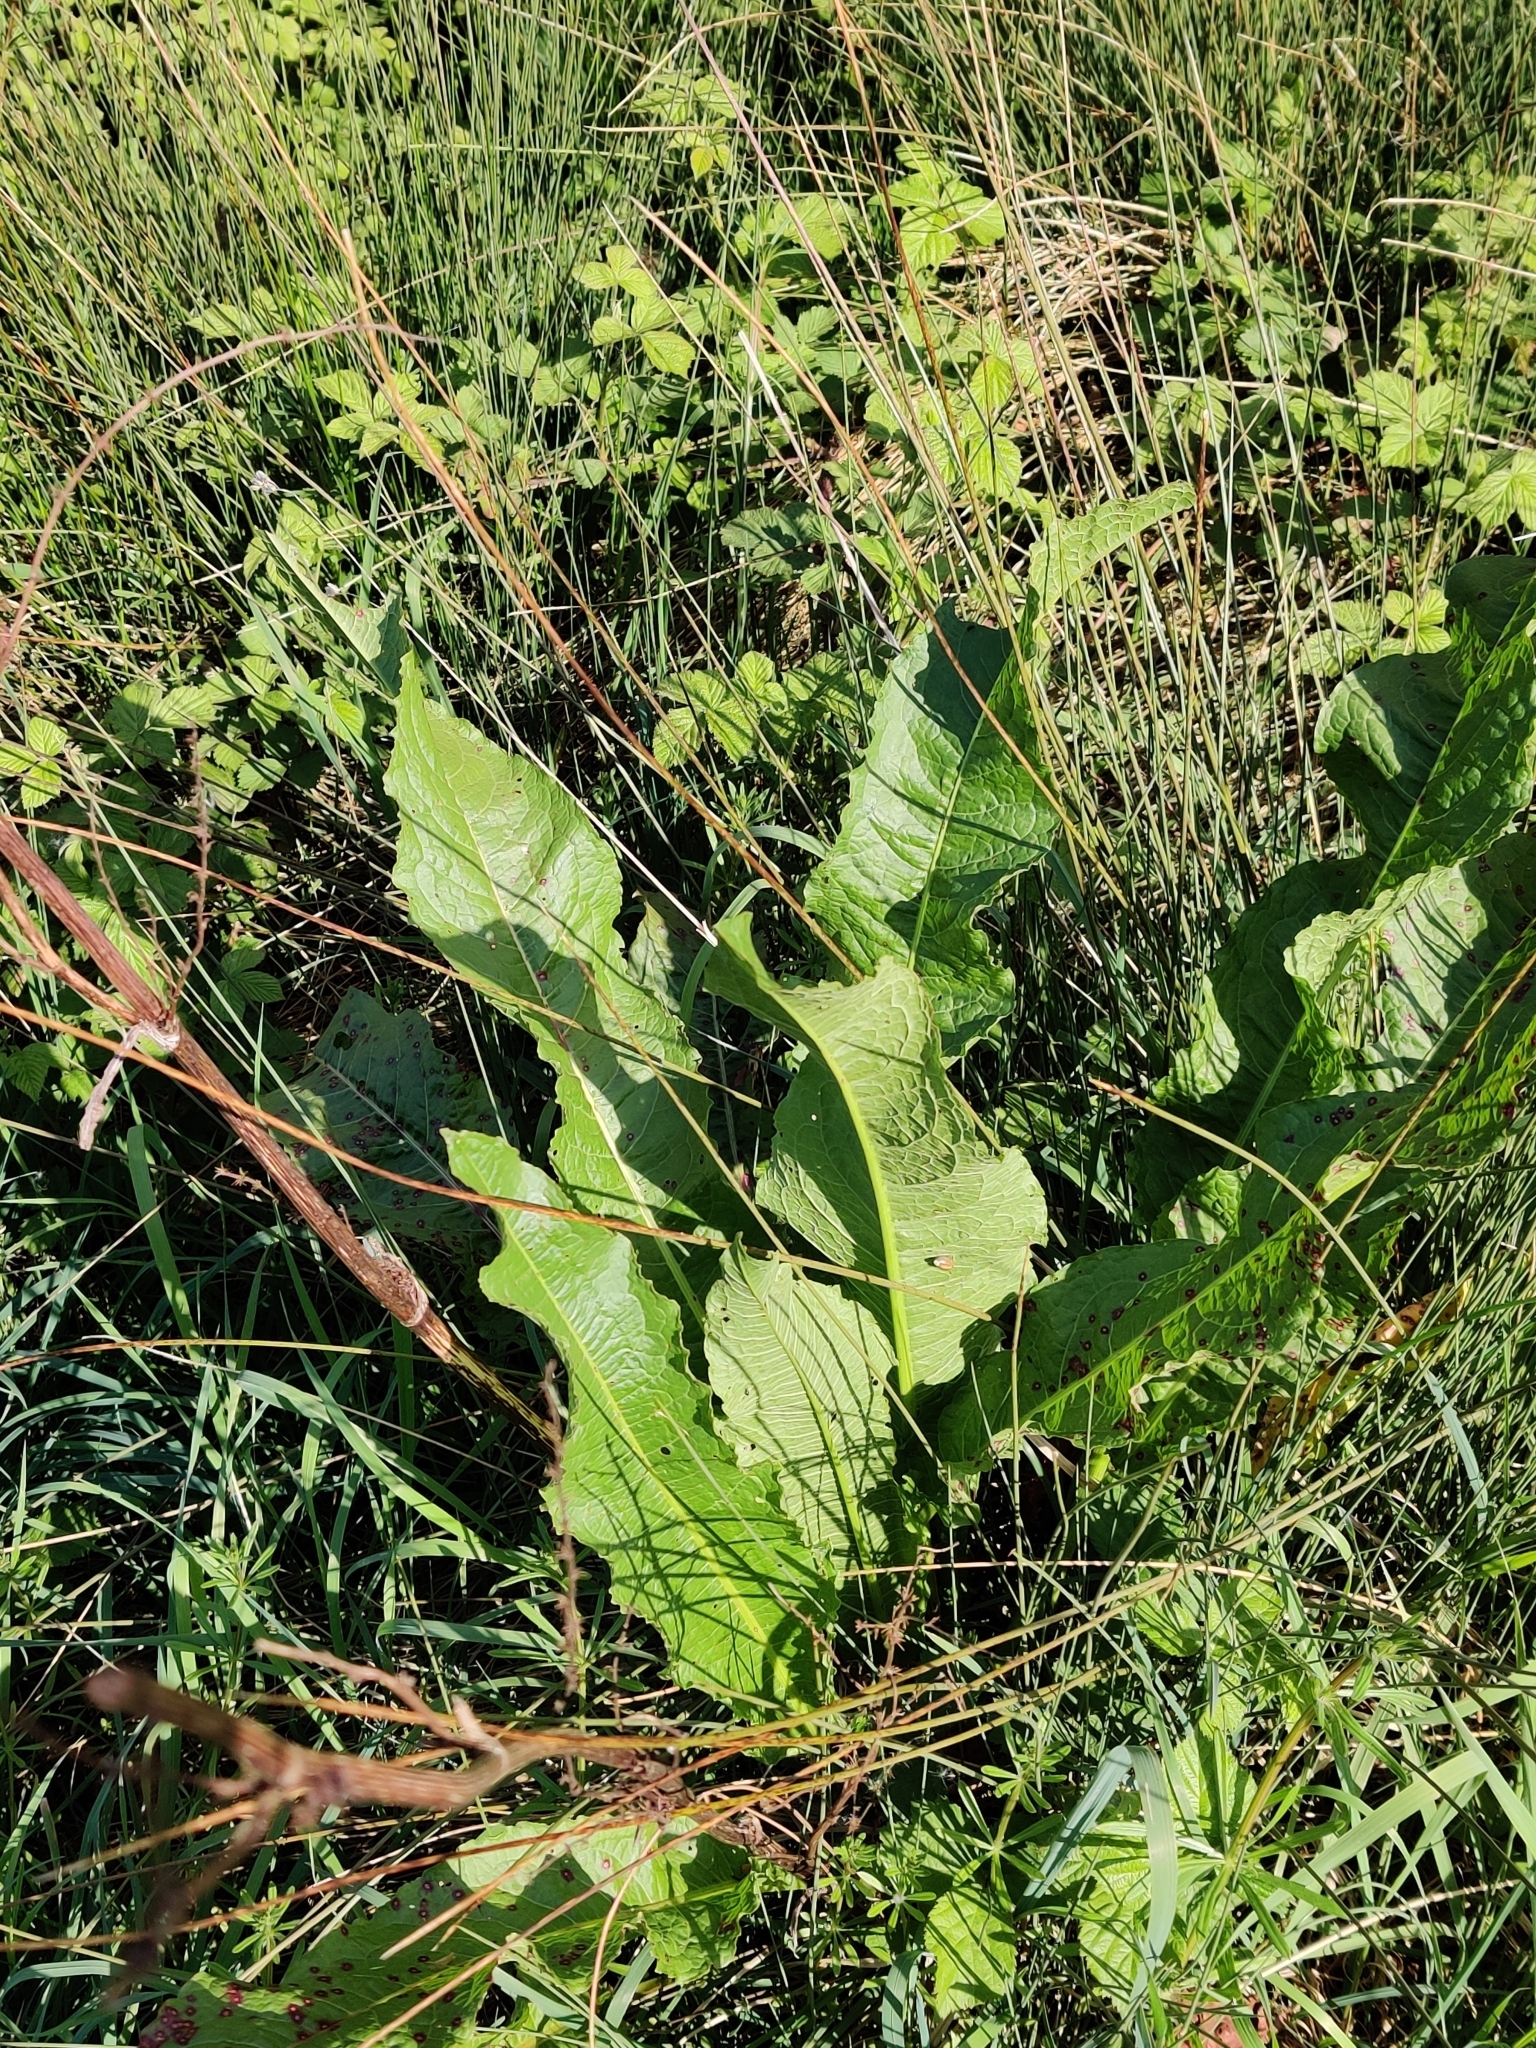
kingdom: Plantae
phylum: Tracheophyta
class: Magnoliopsida
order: Caryophyllales
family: Polygonaceae
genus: Rumex
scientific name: Rumex crispus
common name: Curled dock
